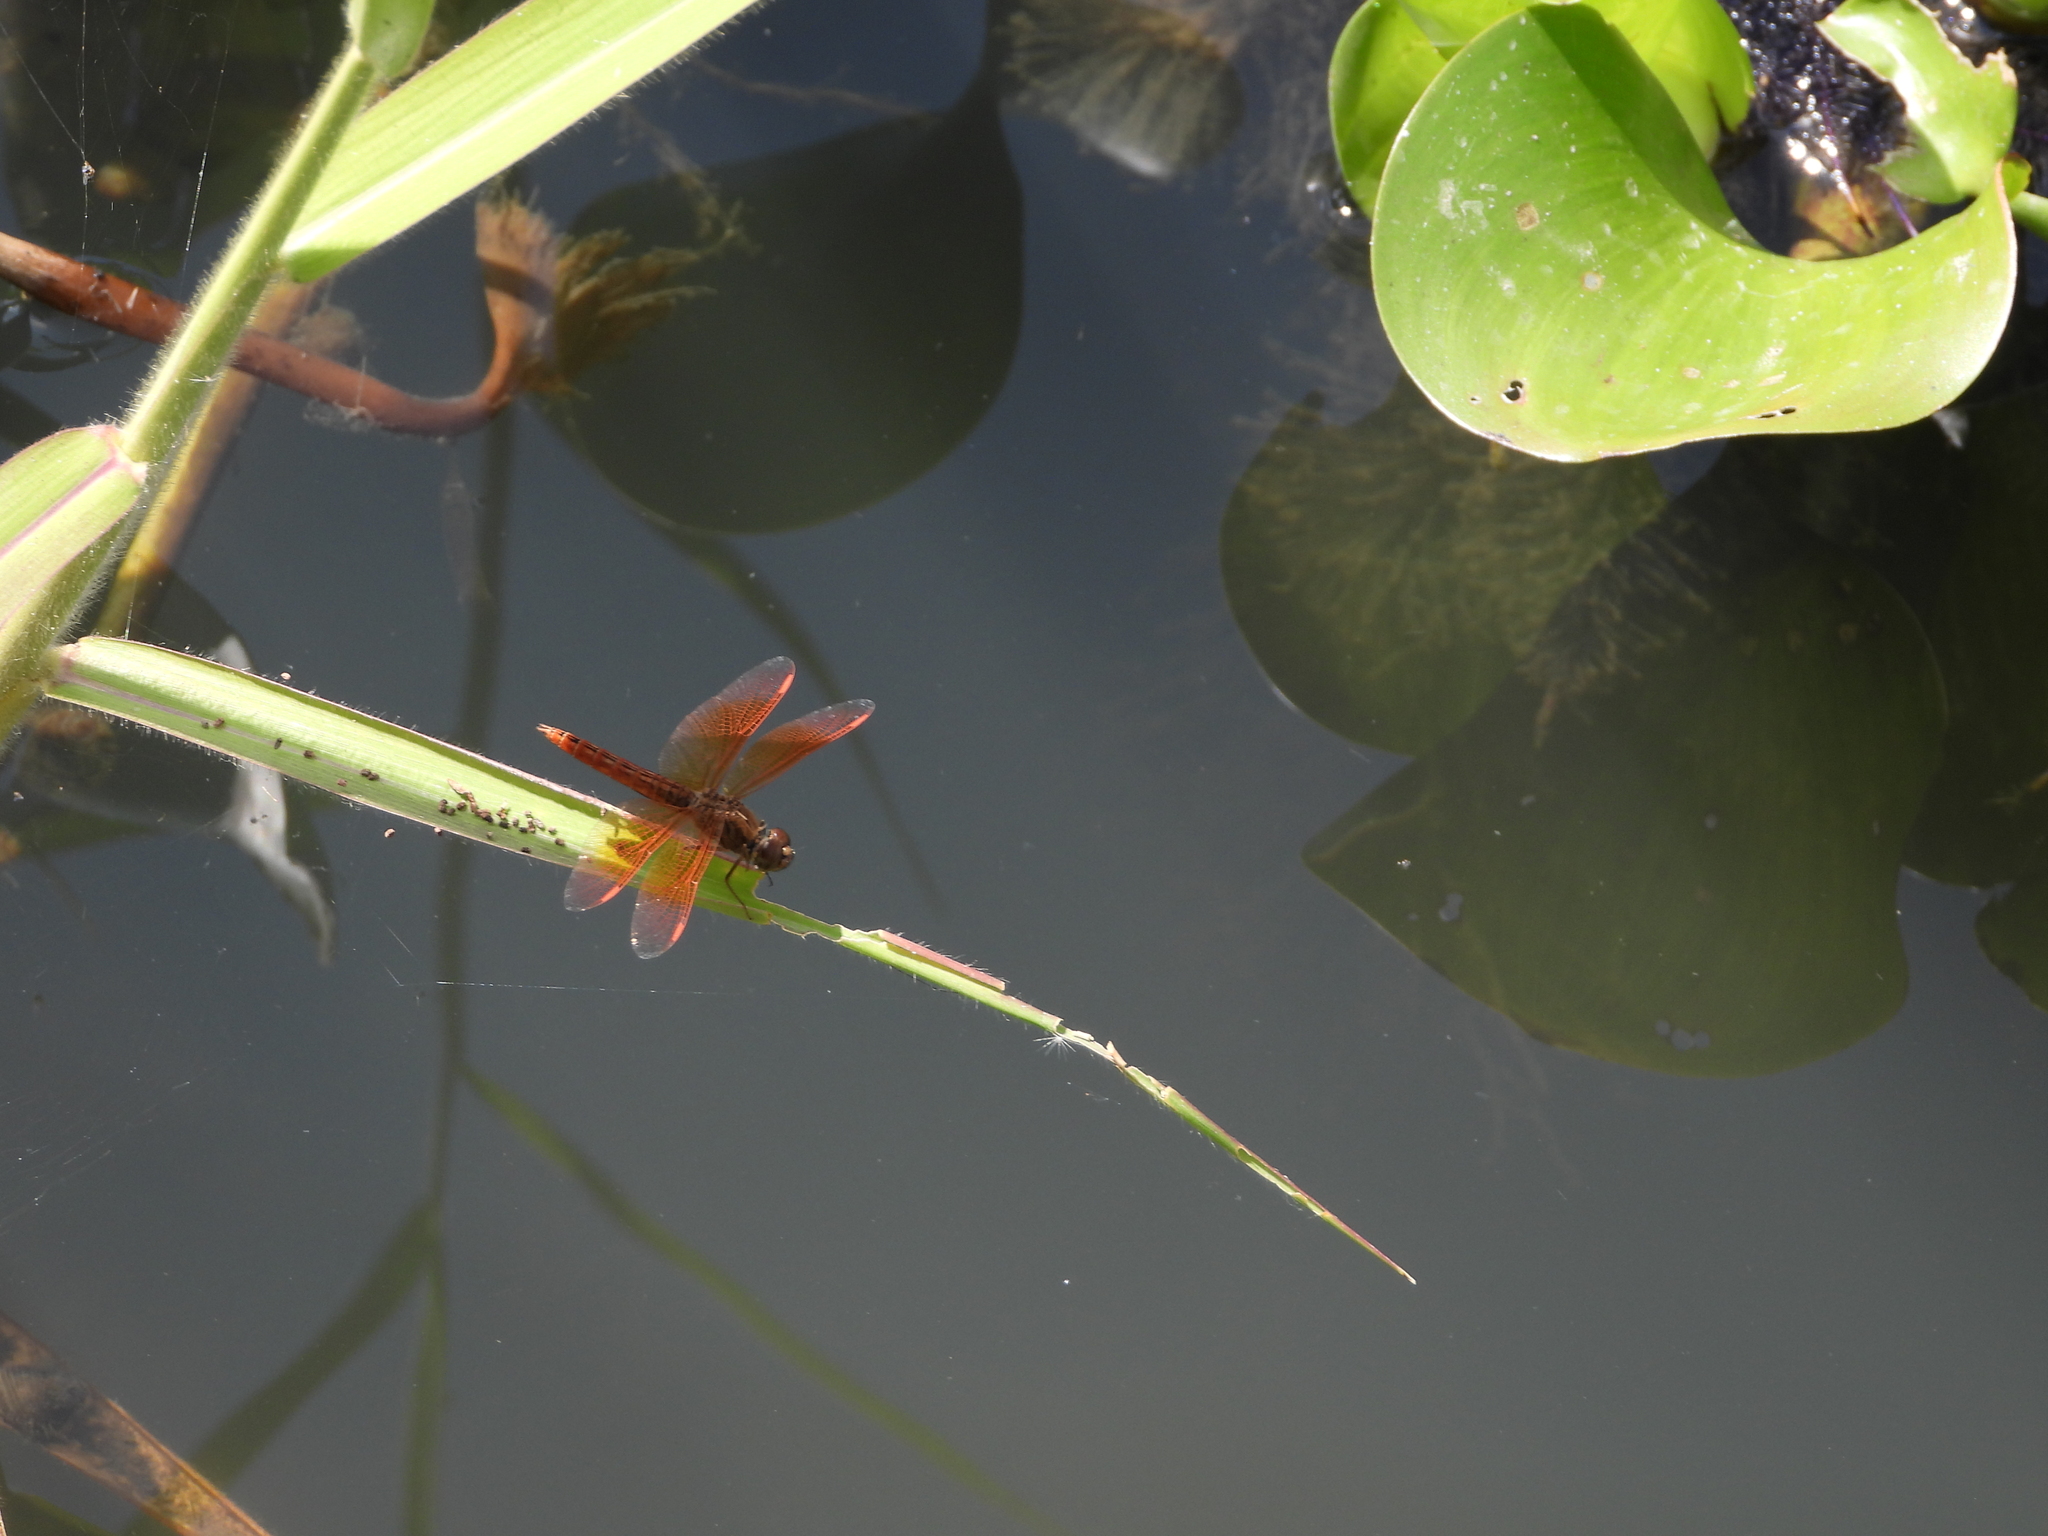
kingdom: Animalia
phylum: Arthropoda
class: Insecta
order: Odonata
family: Libellulidae
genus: Brachythemis
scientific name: Brachythemis contaminata
